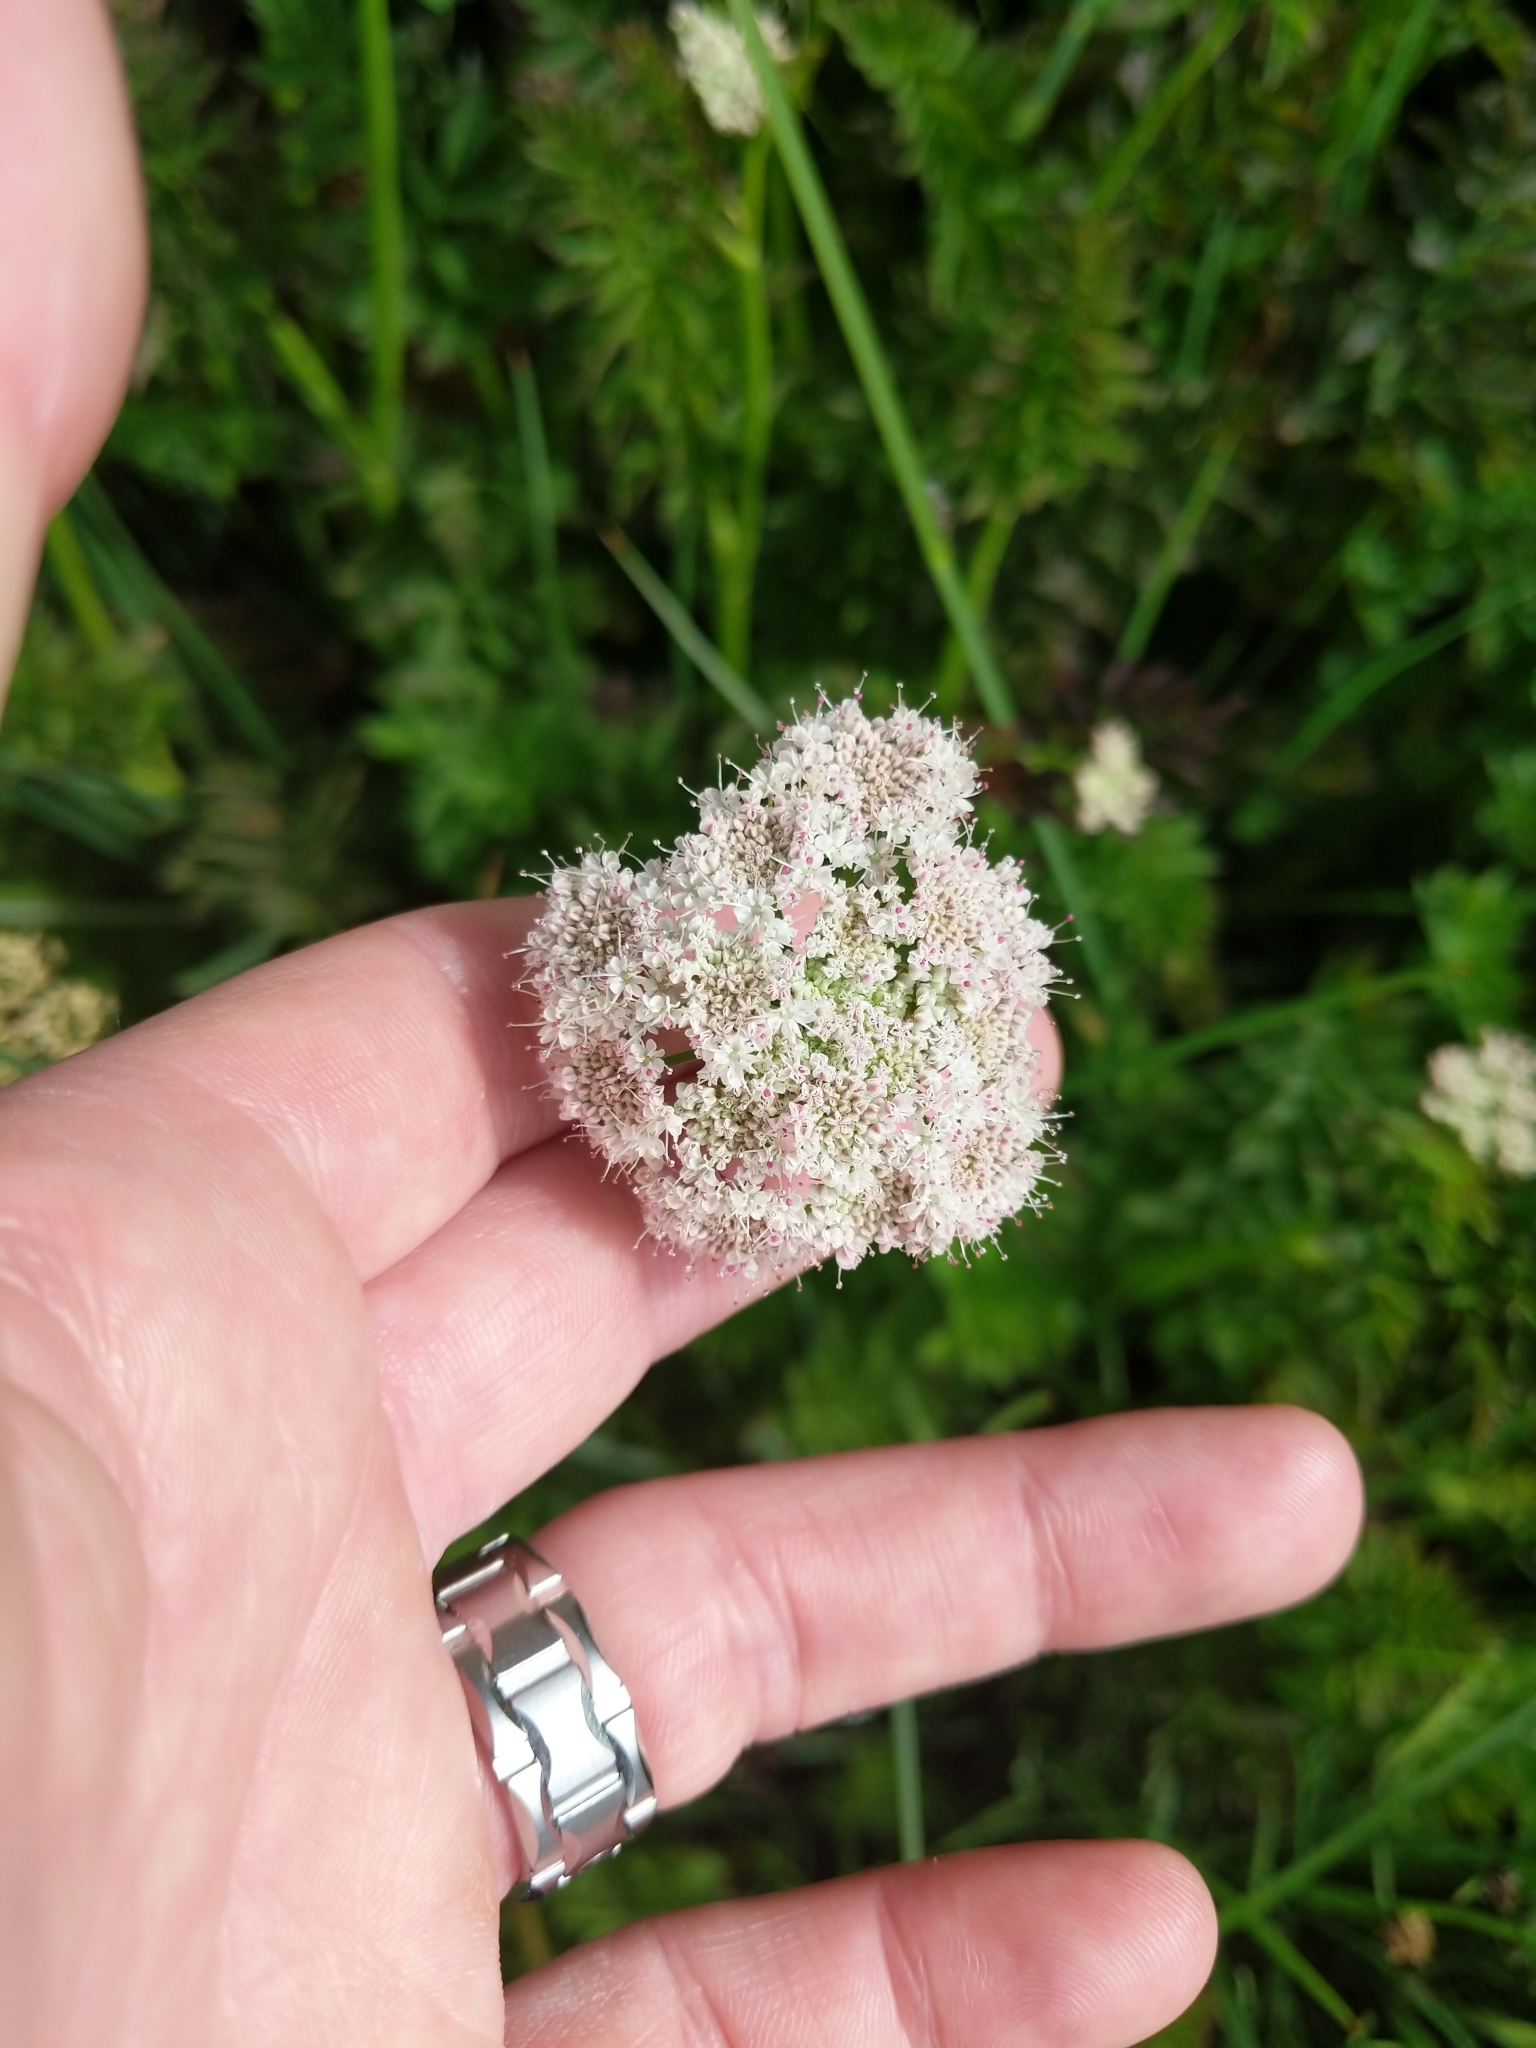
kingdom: Plantae
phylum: Tracheophyta
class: Magnoliopsida
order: Apiales
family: Apiaceae
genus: Oenanthe
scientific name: Oenanthe sarmentosa
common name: American water-parsley
